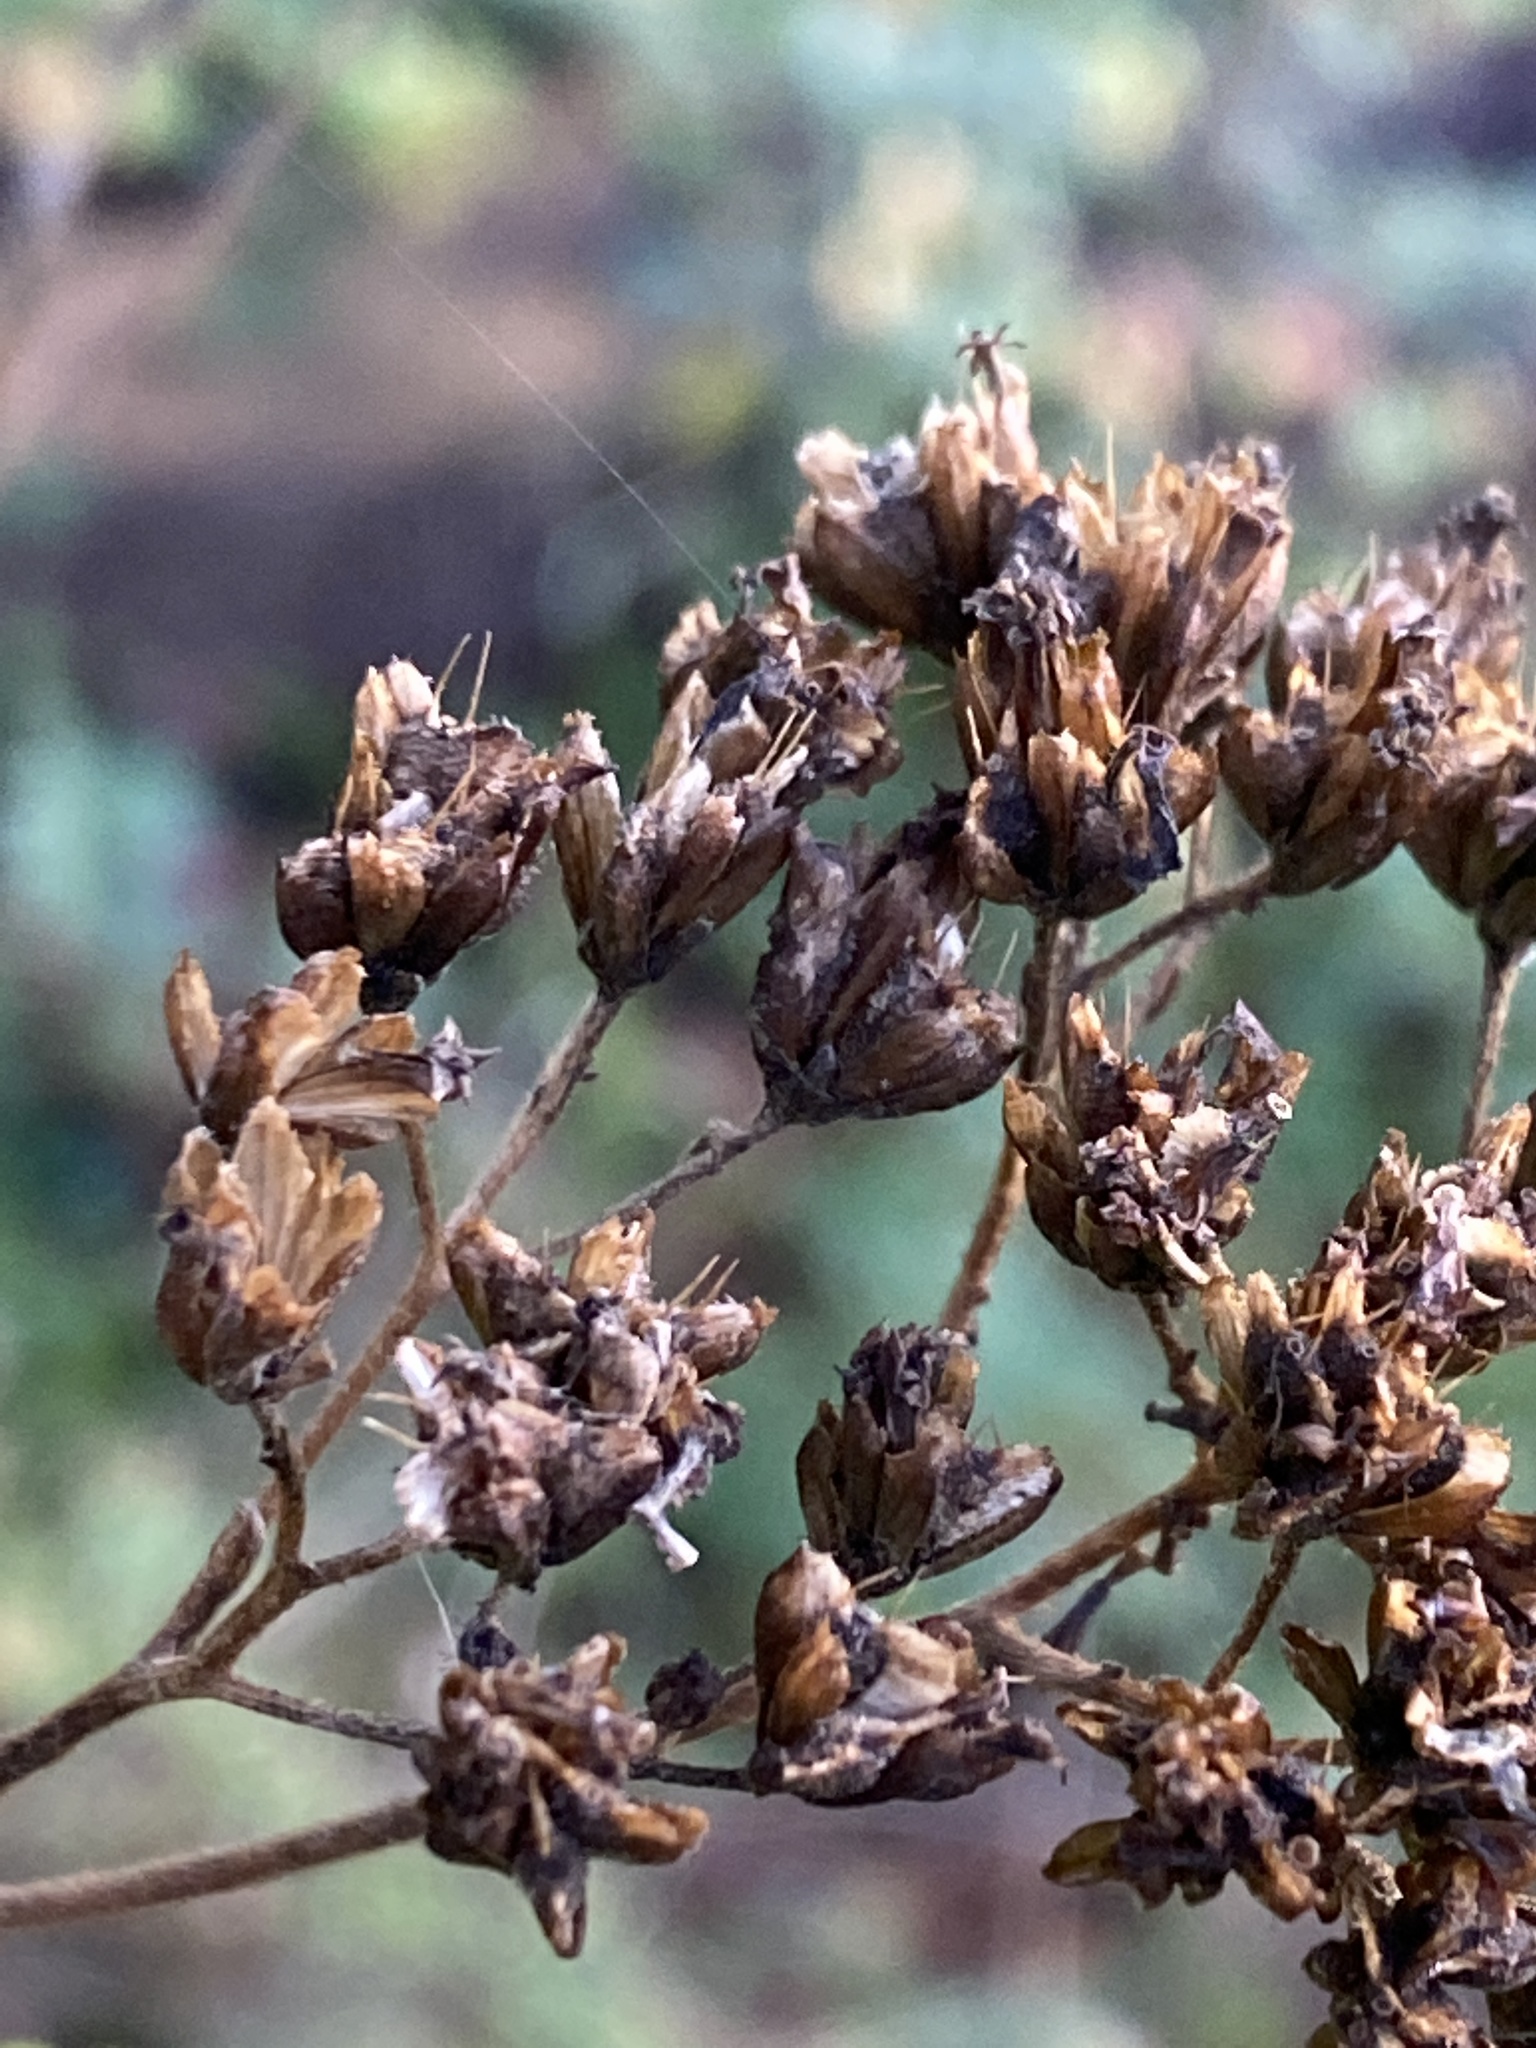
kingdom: Plantae
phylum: Tracheophyta
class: Magnoliopsida
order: Asterales
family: Asteraceae
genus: Verbesina
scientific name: Verbesina virginica
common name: Frostweed
